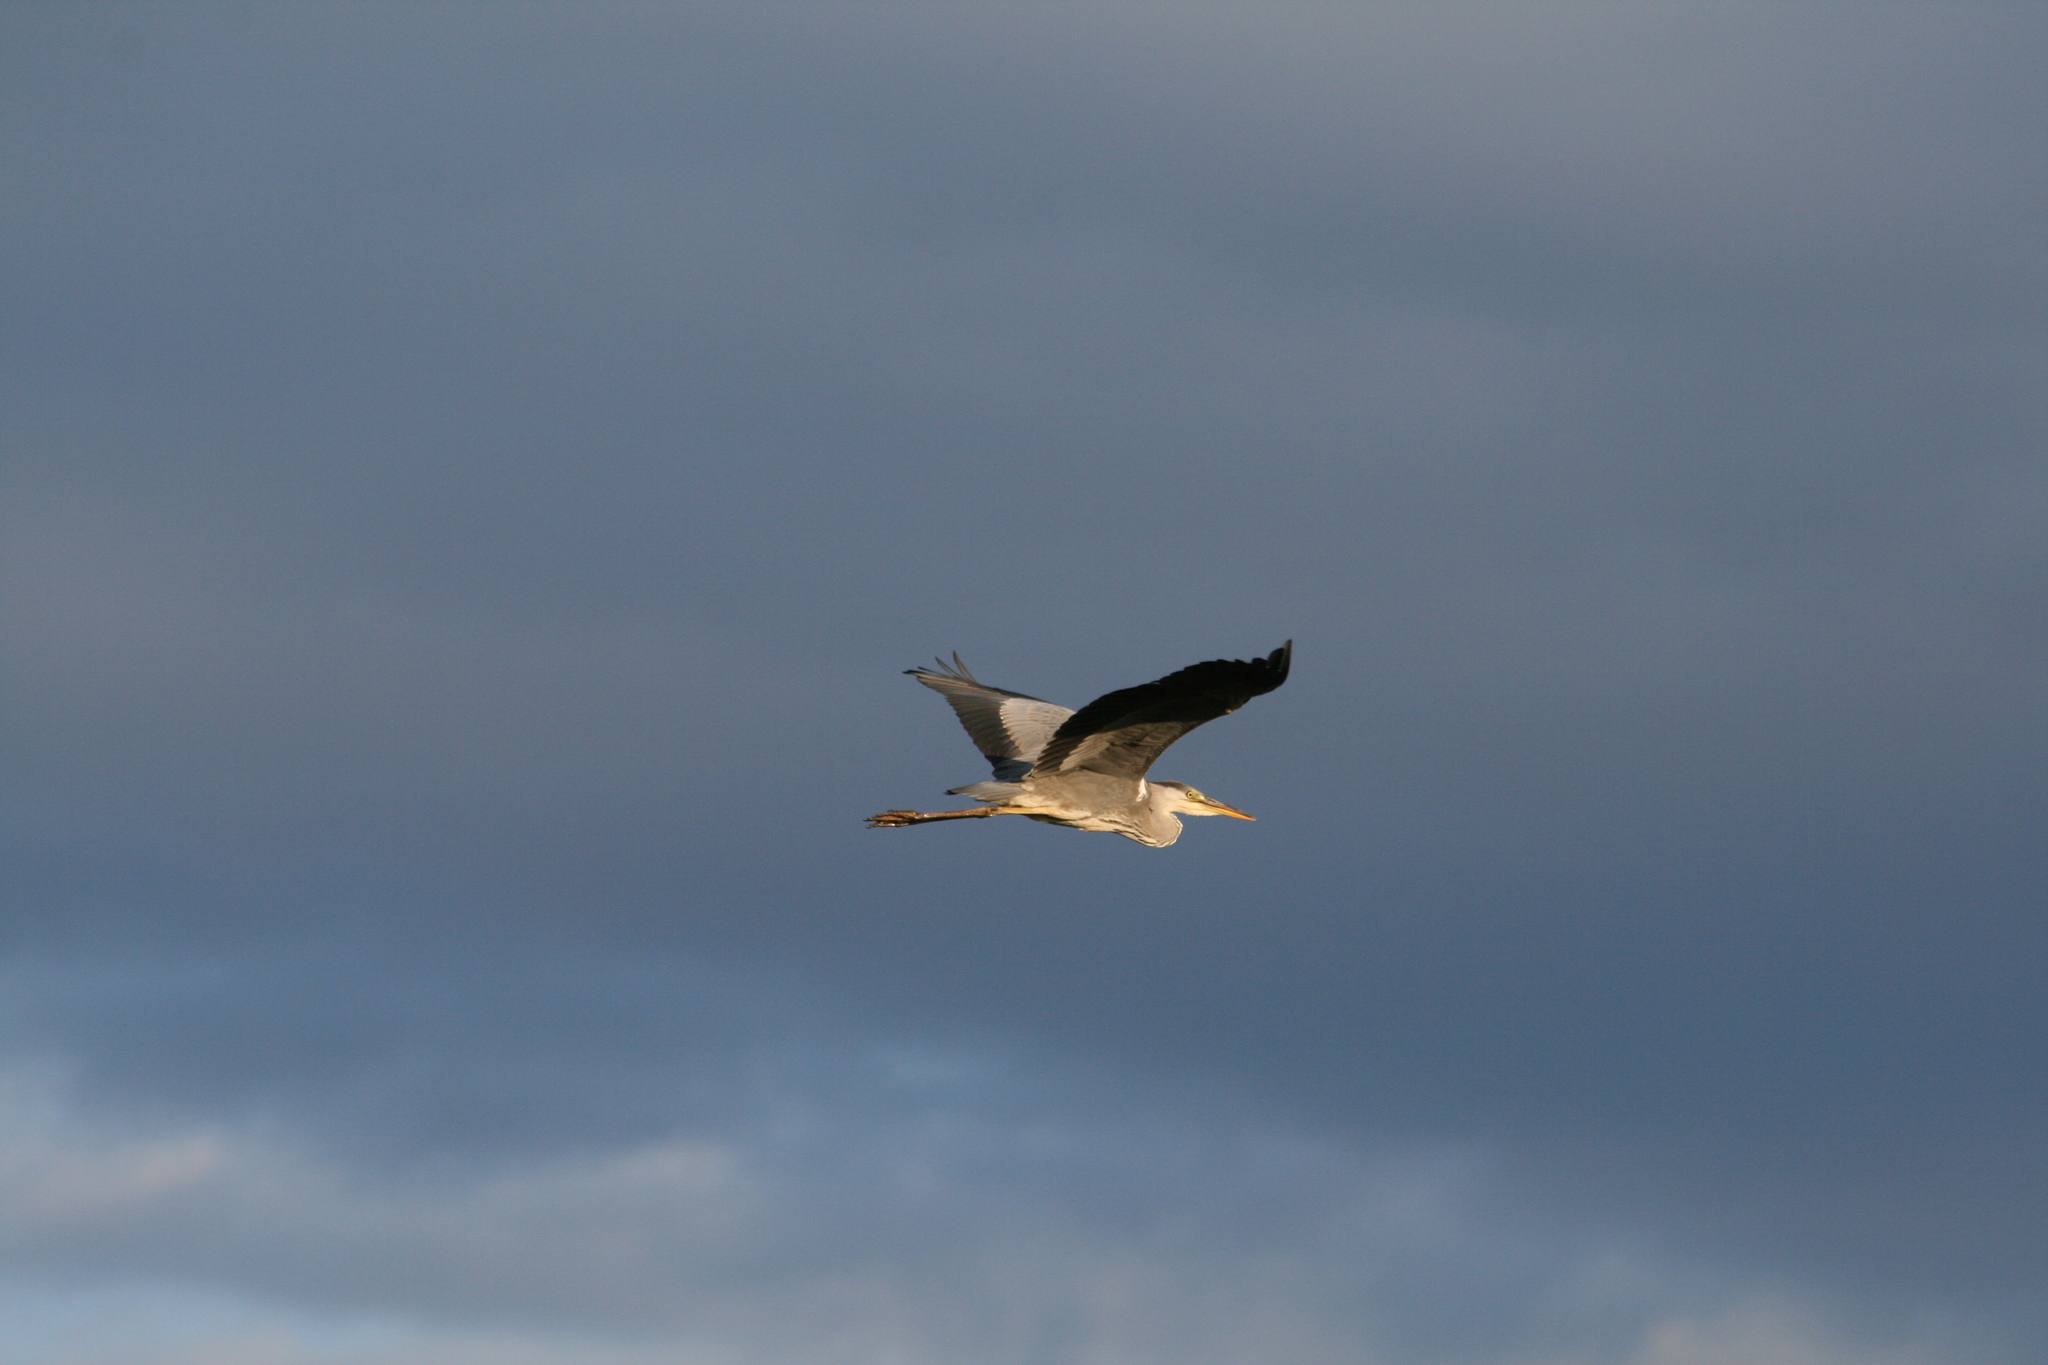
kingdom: Animalia
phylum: Chordata
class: Aves
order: Pelecaniformes
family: Ardeidae
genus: Ardea
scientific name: Ardea cinerea
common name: Grey heron
